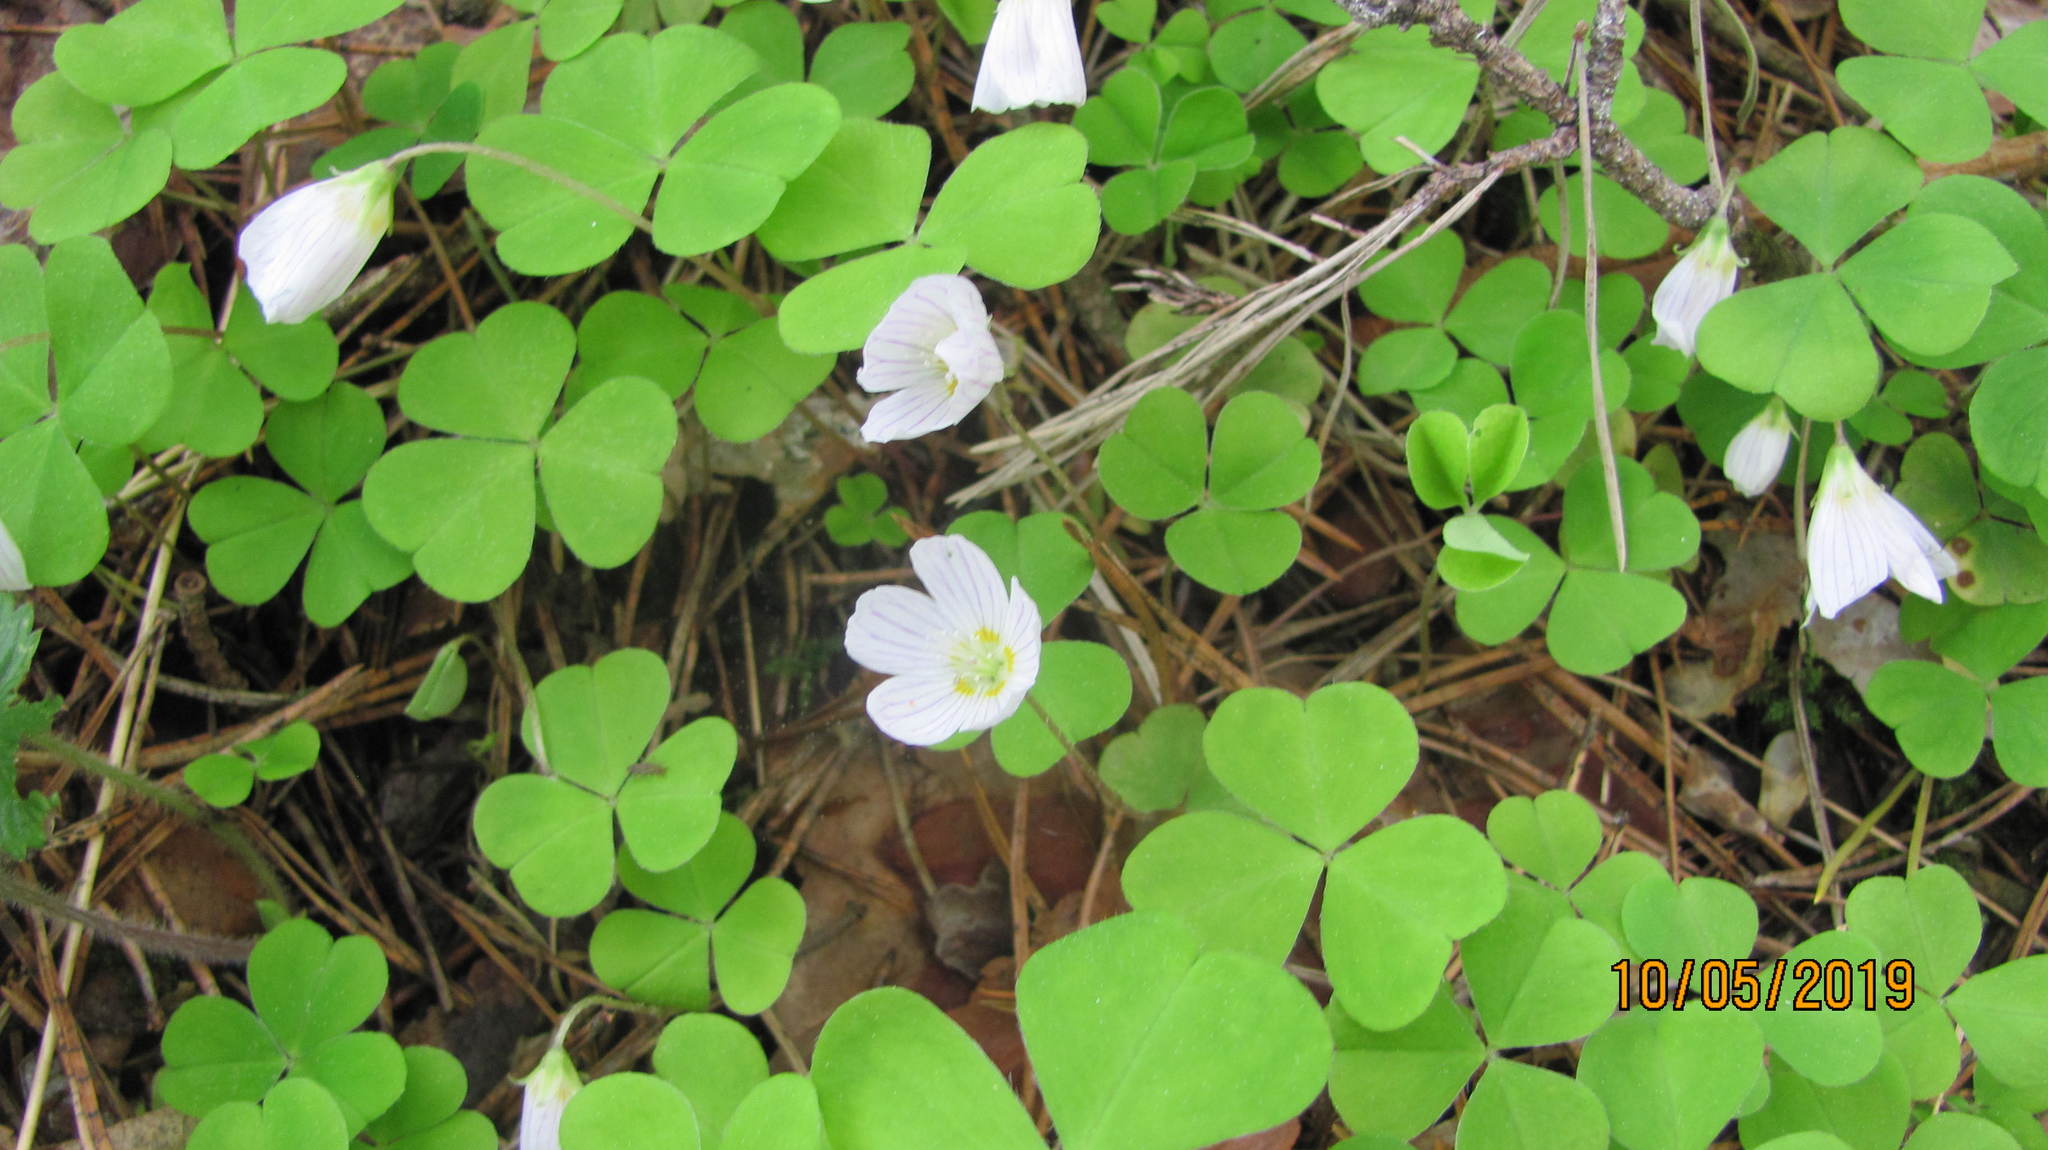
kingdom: Plantae
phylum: Tracheophyta
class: Magnoliopsida
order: Oxalidales
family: Oxalidaceae
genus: Oxalis
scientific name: Oxalis acetosella
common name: Wood-sorrel
